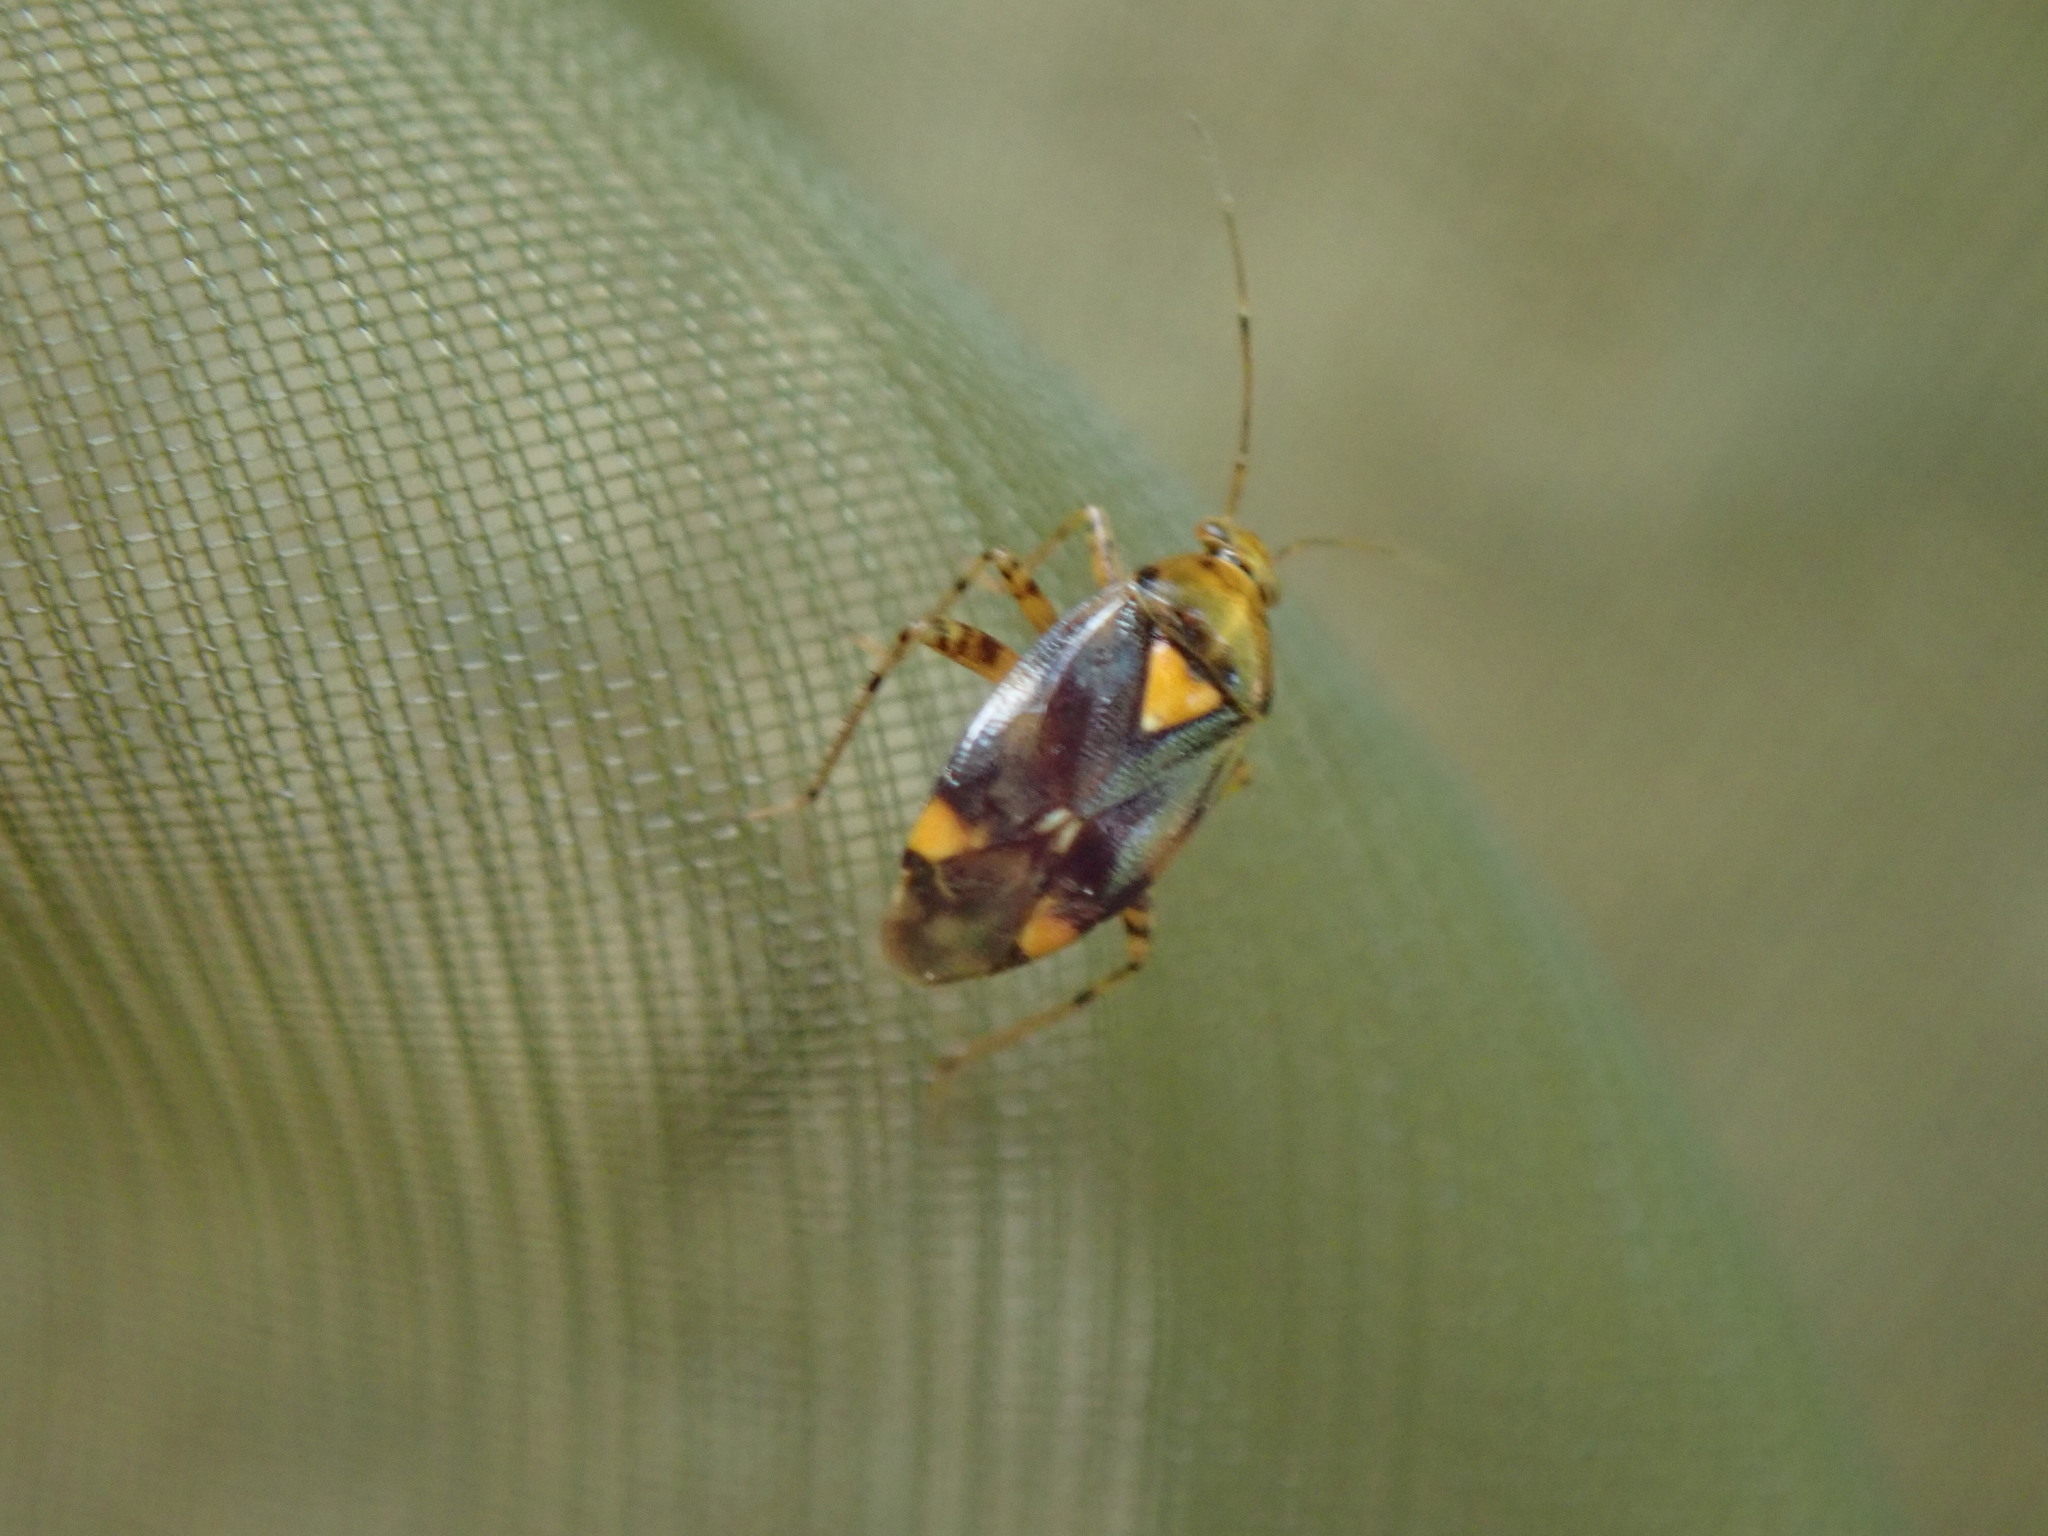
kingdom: Animalia
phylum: Arthropoda
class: Insecta
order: Hemiptera
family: Miridae
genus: Liocoris
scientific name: Liocoris tripustulatus
